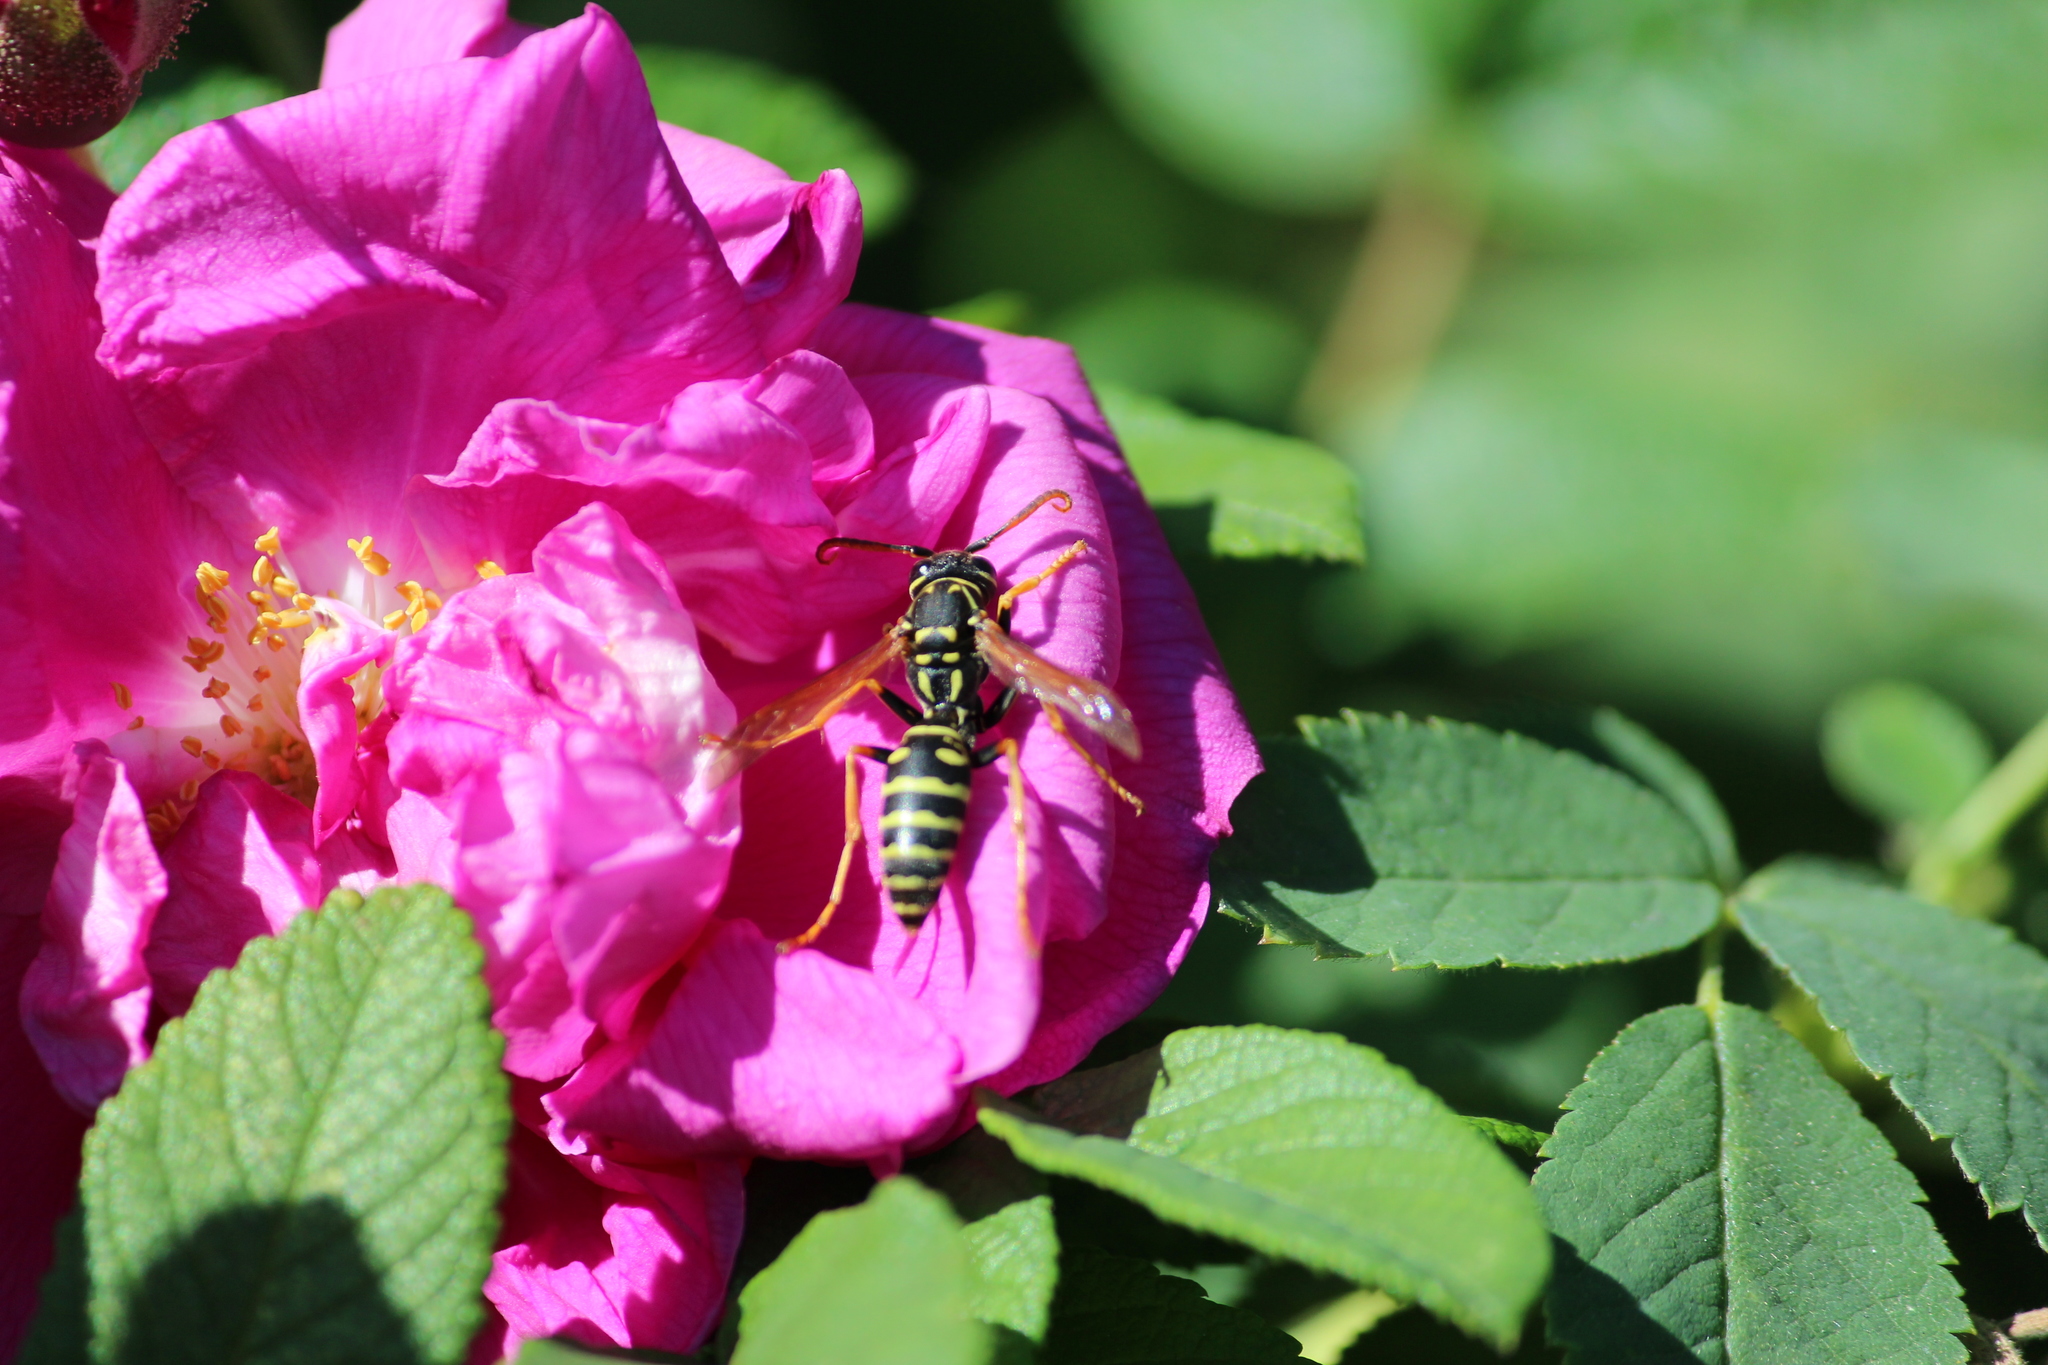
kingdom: Animalia
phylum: Arthropoda
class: Insecta
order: Hymenoptera
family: Eumenidae
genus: Polistes
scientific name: Polistes
